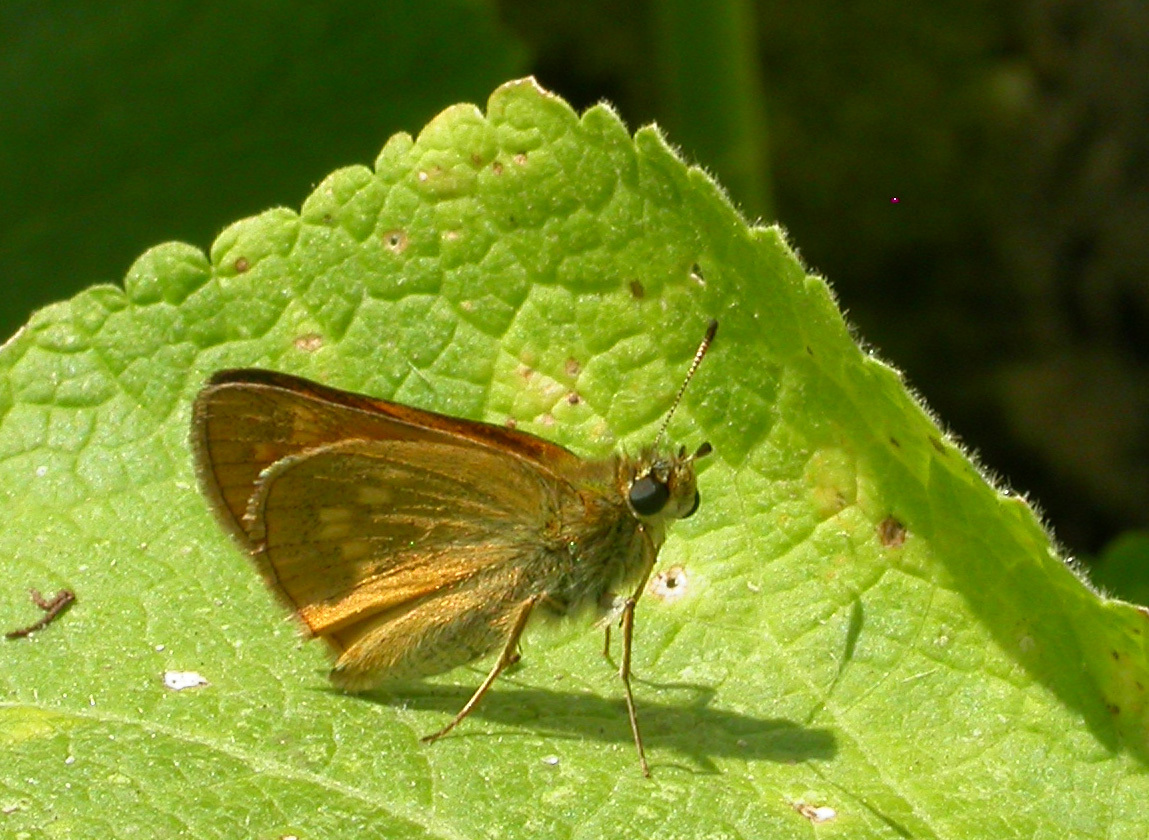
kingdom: Animalia
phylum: Arthropoda
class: Insecta
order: Lepidoptera
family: Hesperiidae
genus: Ochlodes
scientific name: Ochlodes venata
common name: Large skipper
